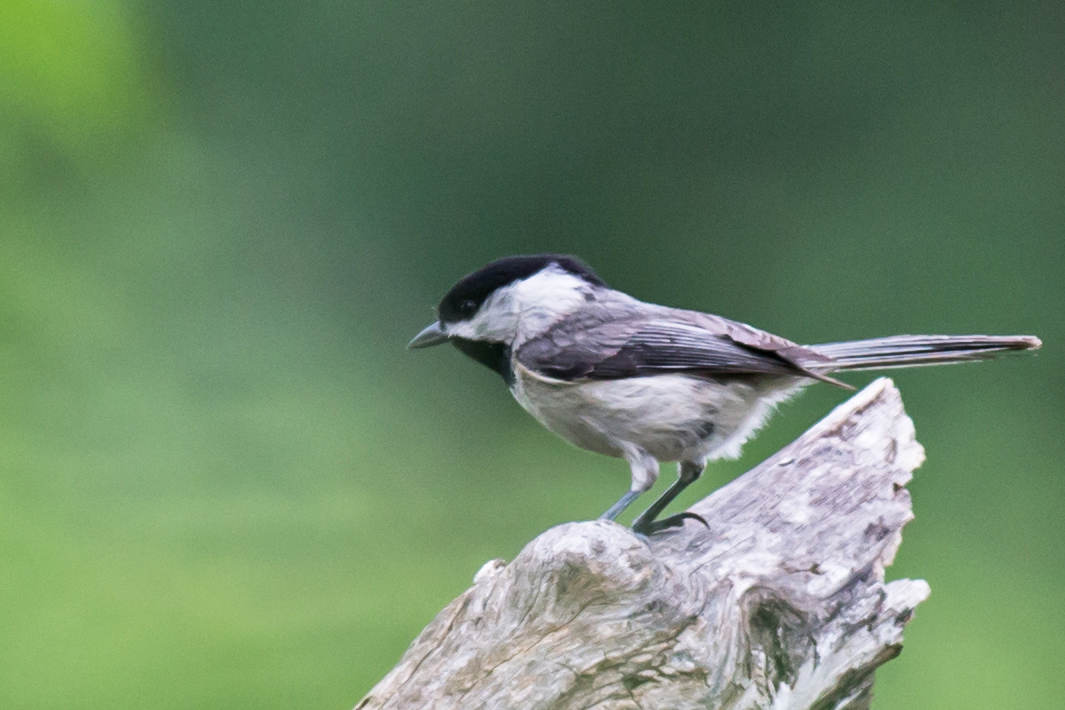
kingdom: Animalia
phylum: Chordata
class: Aves
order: Passeriformes
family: Paridae
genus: Poecile
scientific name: Poecile carolinensis
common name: Carolina chickadee
